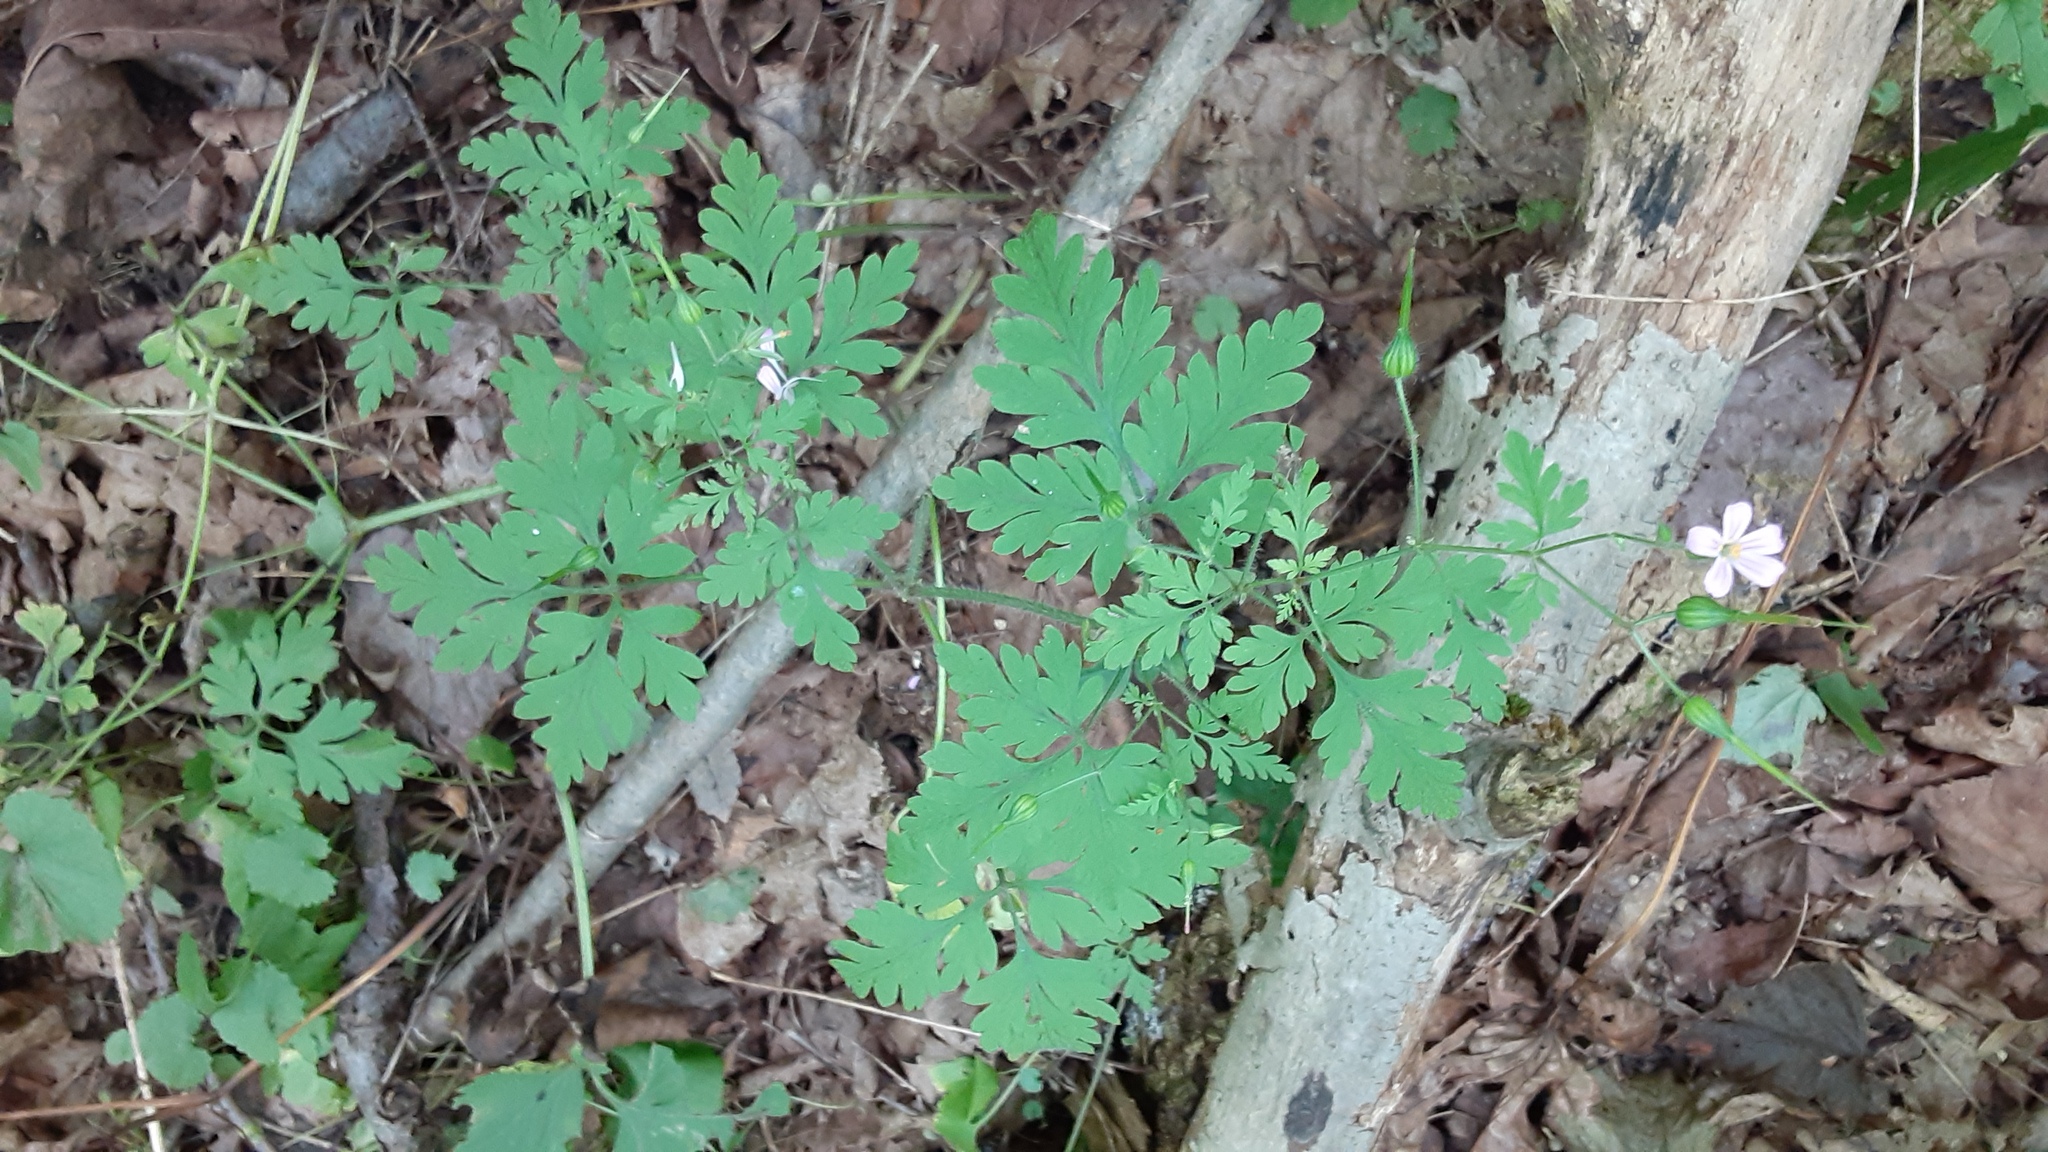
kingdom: Plantae
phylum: Tracheophyta
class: Magnoliopsida
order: Geraniales
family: Geraniaceae
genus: Geranium
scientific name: Geranium robertianum
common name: Herb-robert
